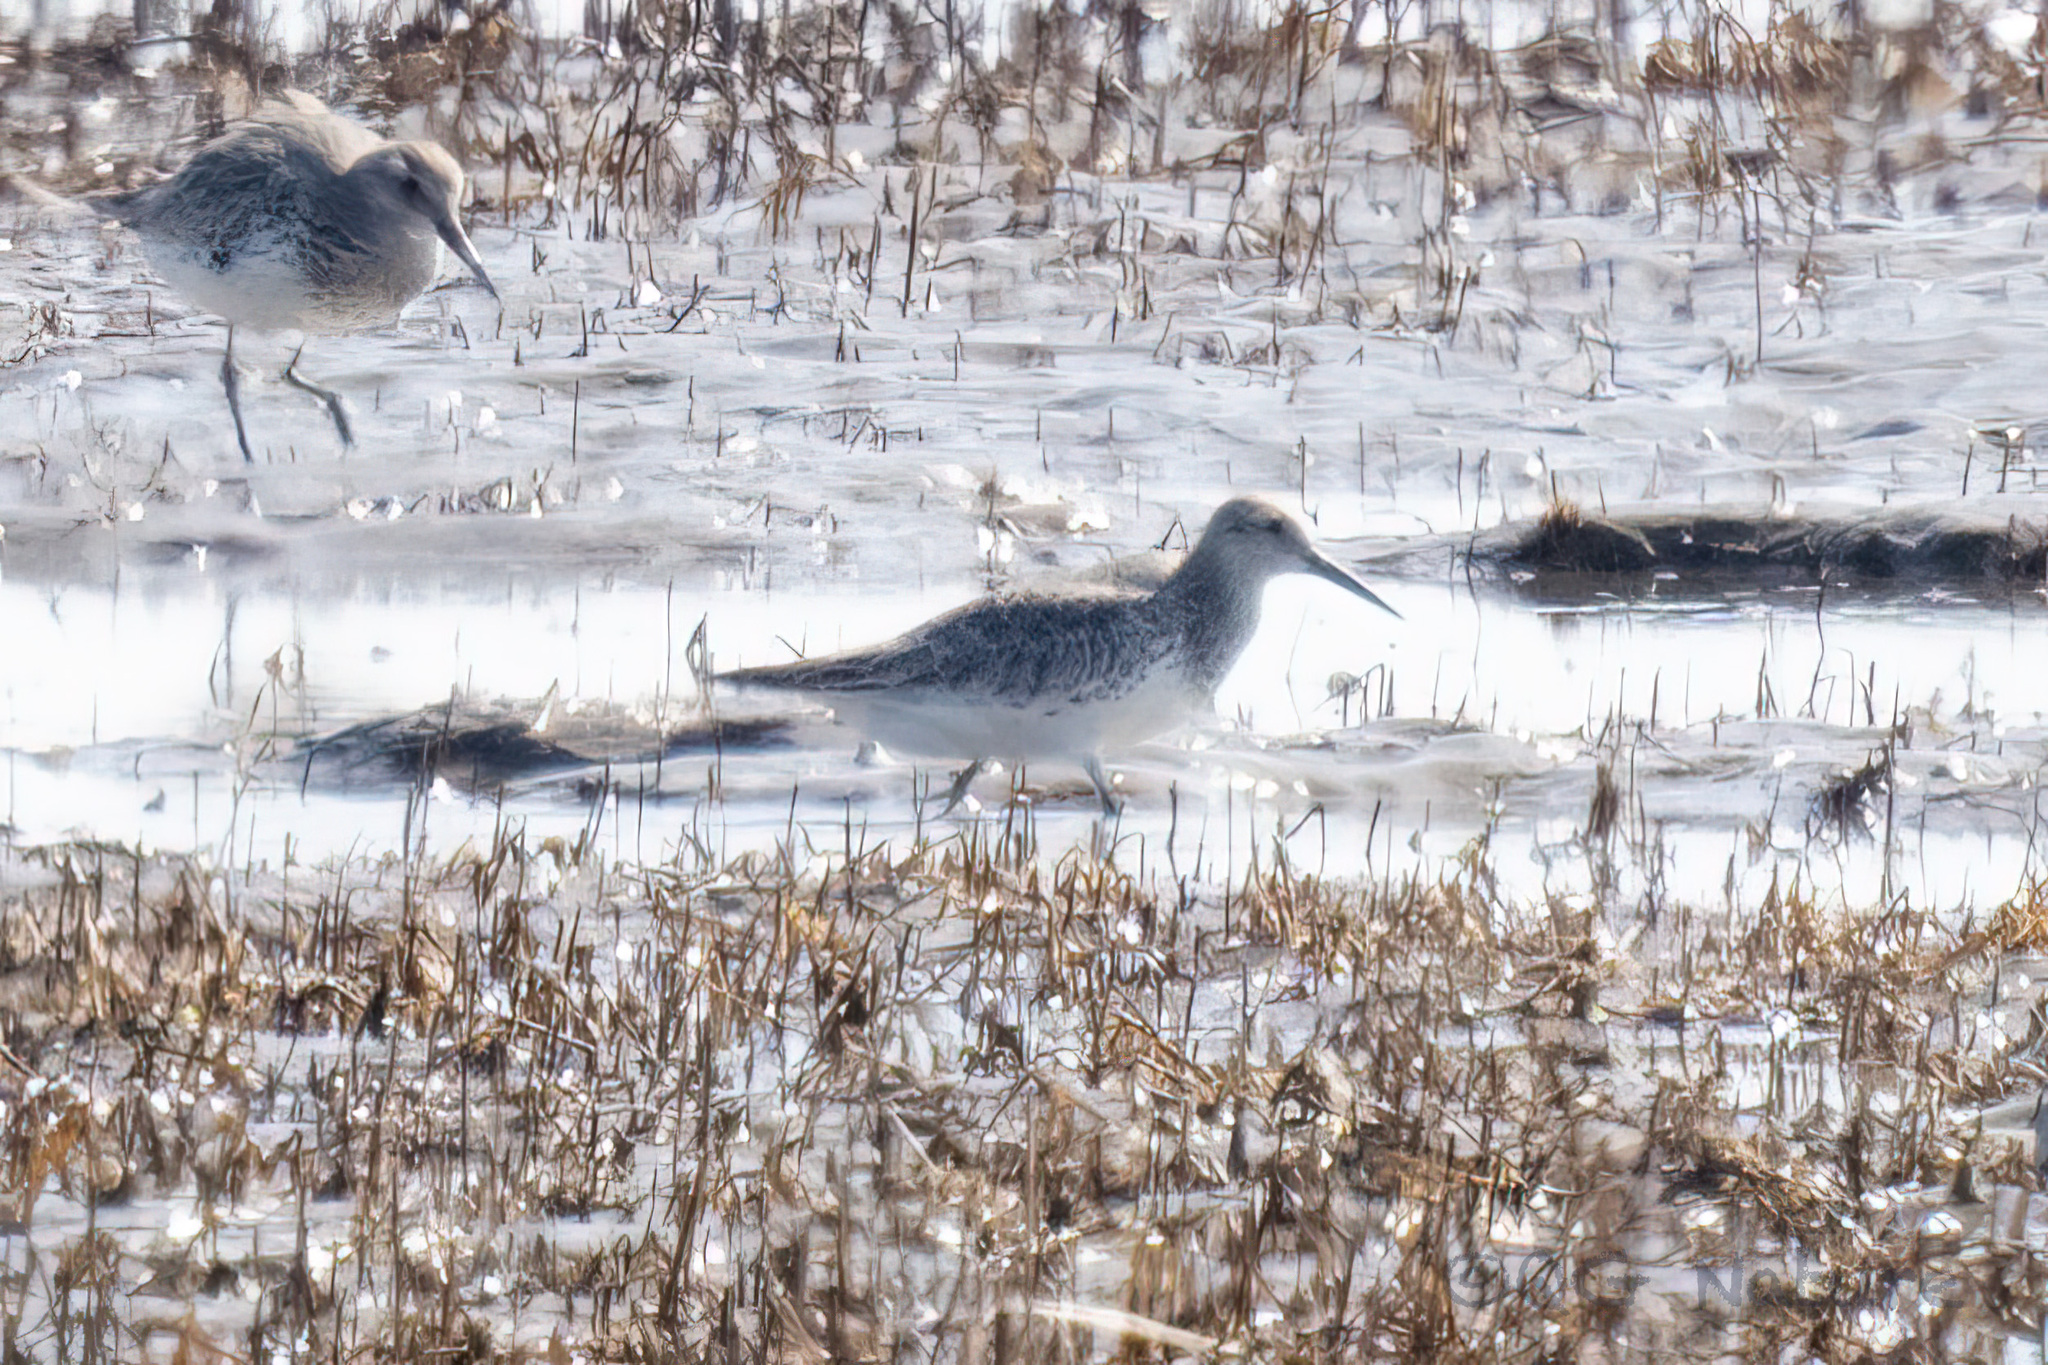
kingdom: Animalia
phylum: Chordata
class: Aves
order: Charadriiformes
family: Scolopacidae
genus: Calidris
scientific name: Calidris tenuirostris
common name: Great knot
